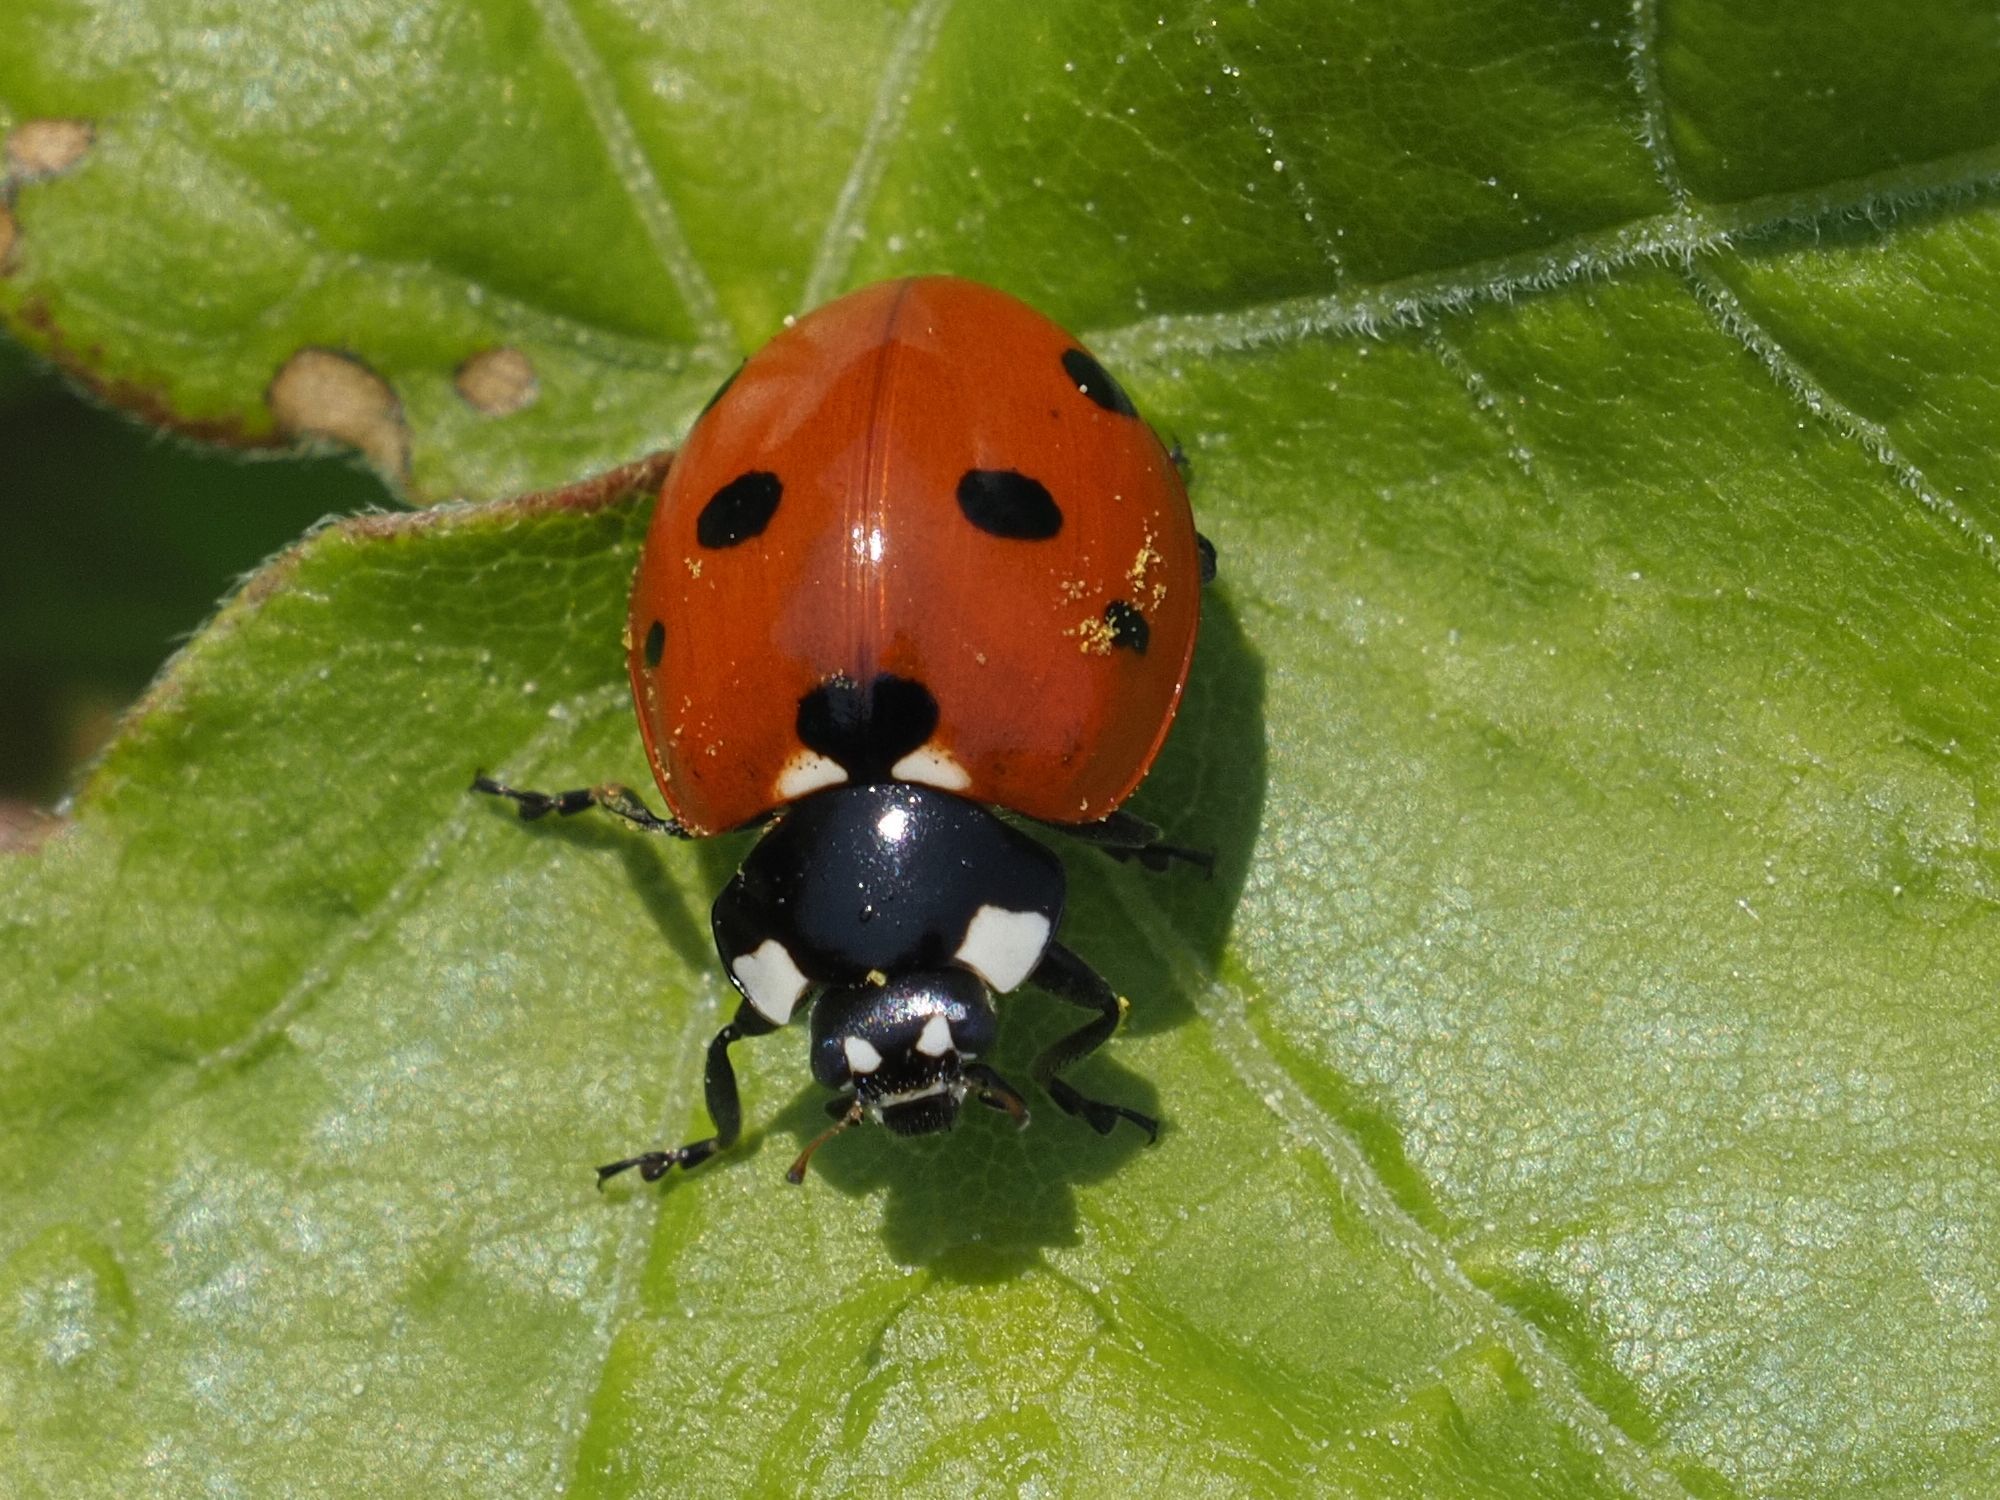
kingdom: Animalia
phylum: Arthropoda
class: Insecta
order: Coleoptera
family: Coccinellidae
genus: Coccinella
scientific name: Coccinella septempunctata
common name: Sevenspotted lady beetle
